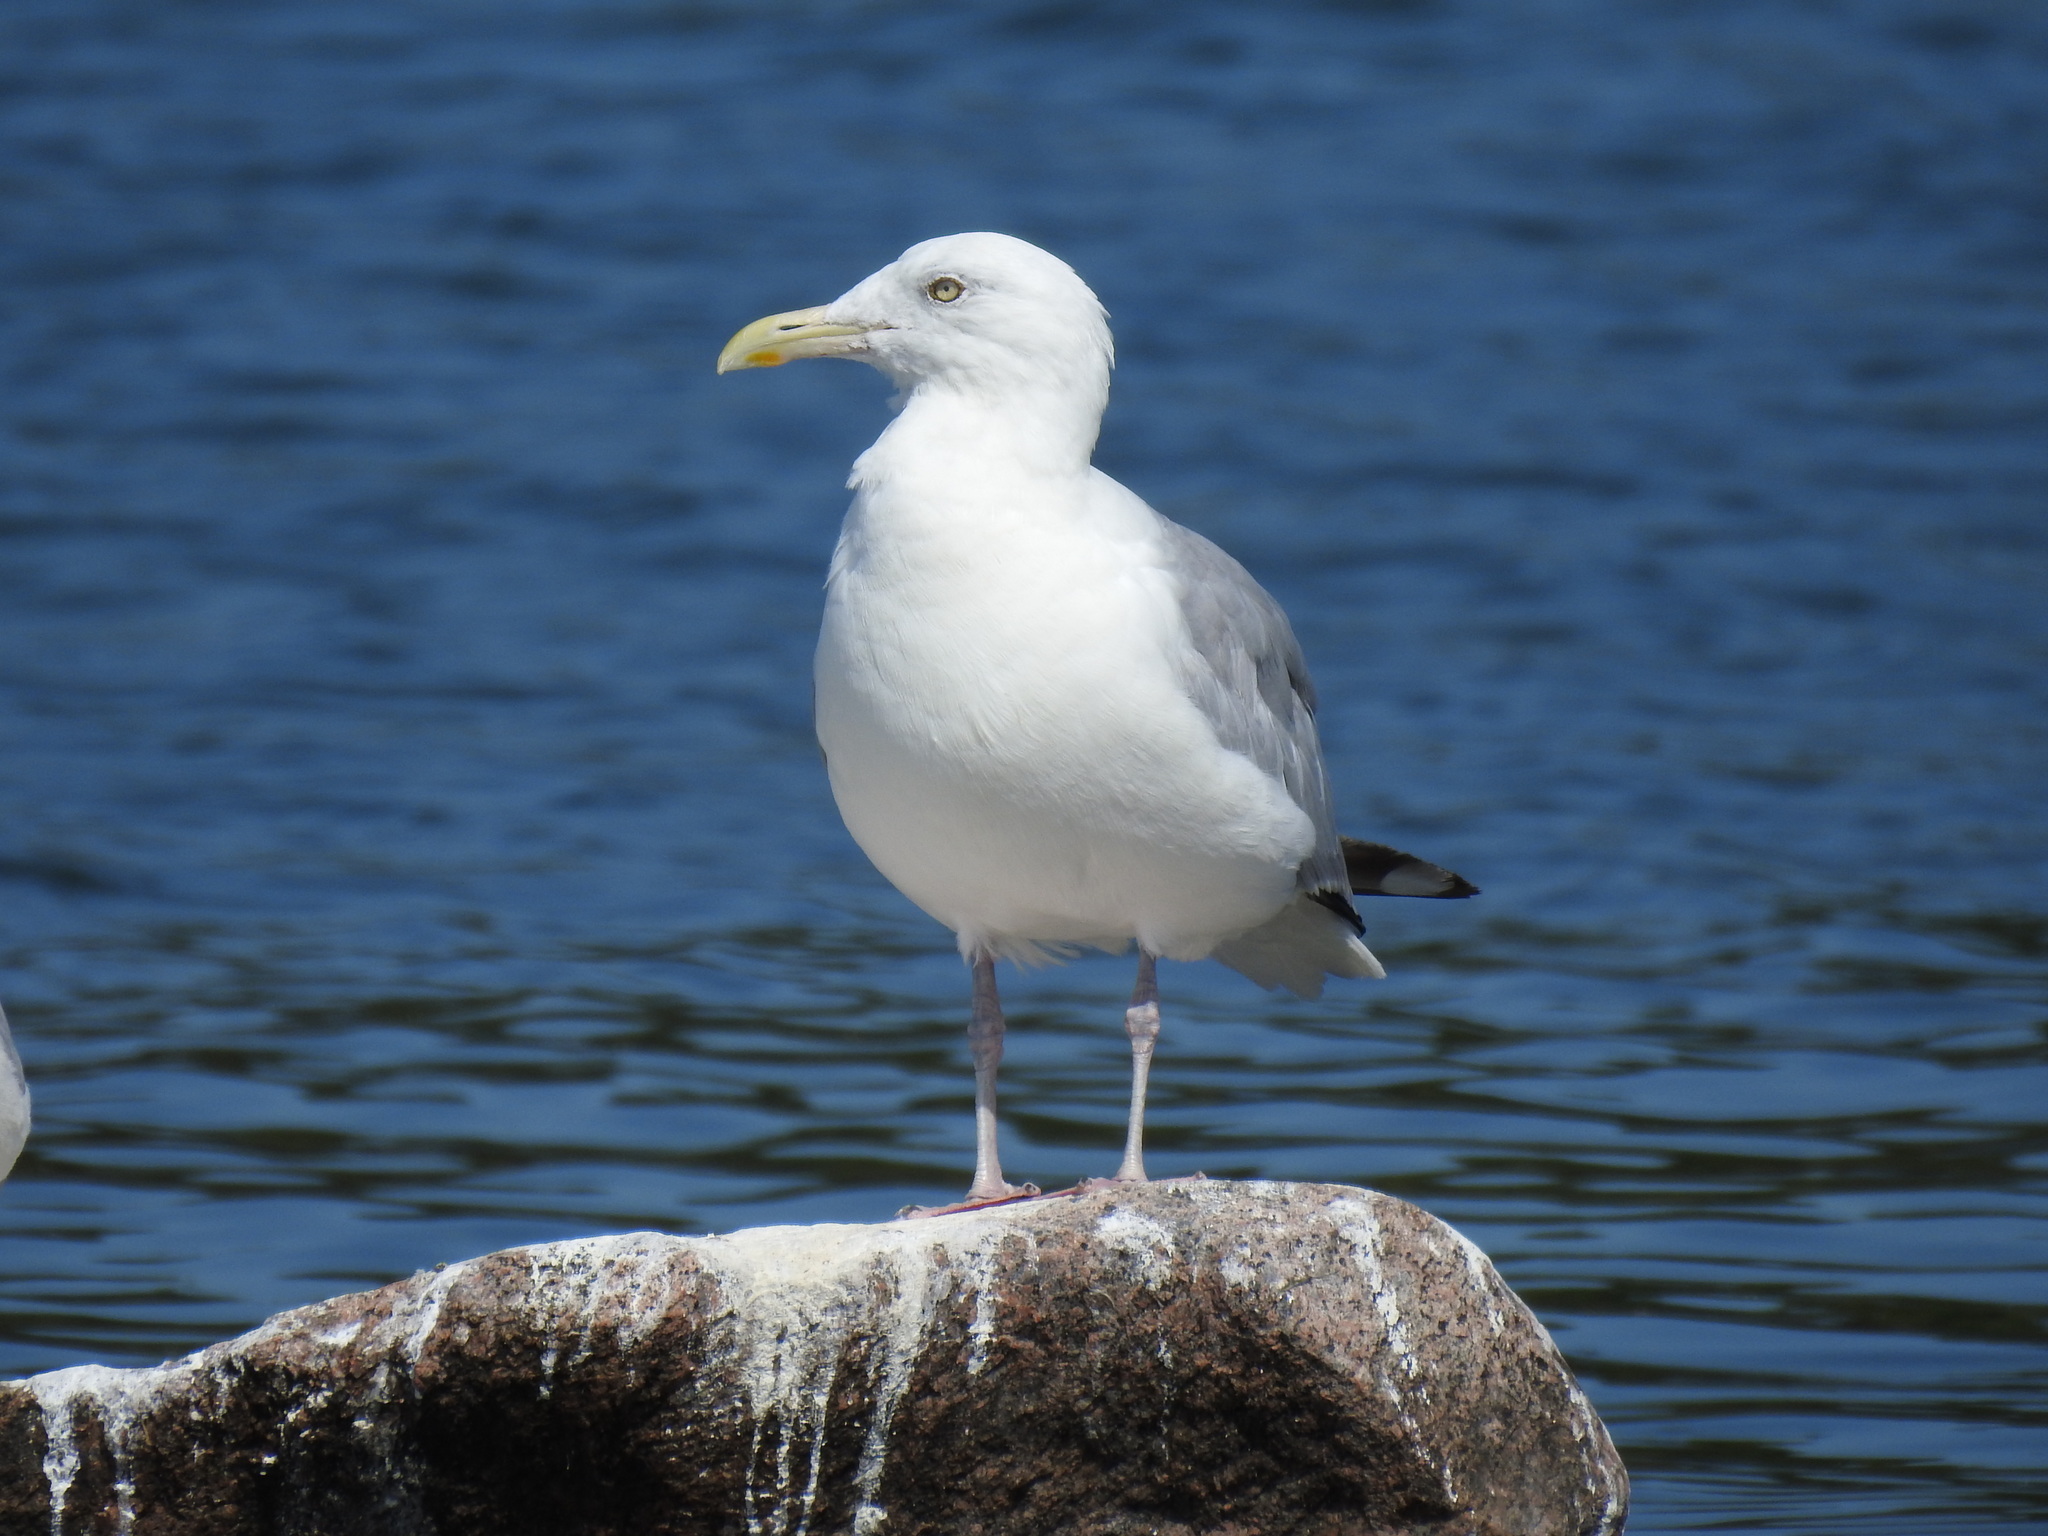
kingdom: Animalia
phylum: Chordata
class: Aves
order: Charadriiformes
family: Laridae
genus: Larus
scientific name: Larus argentatus
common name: Herring gull
